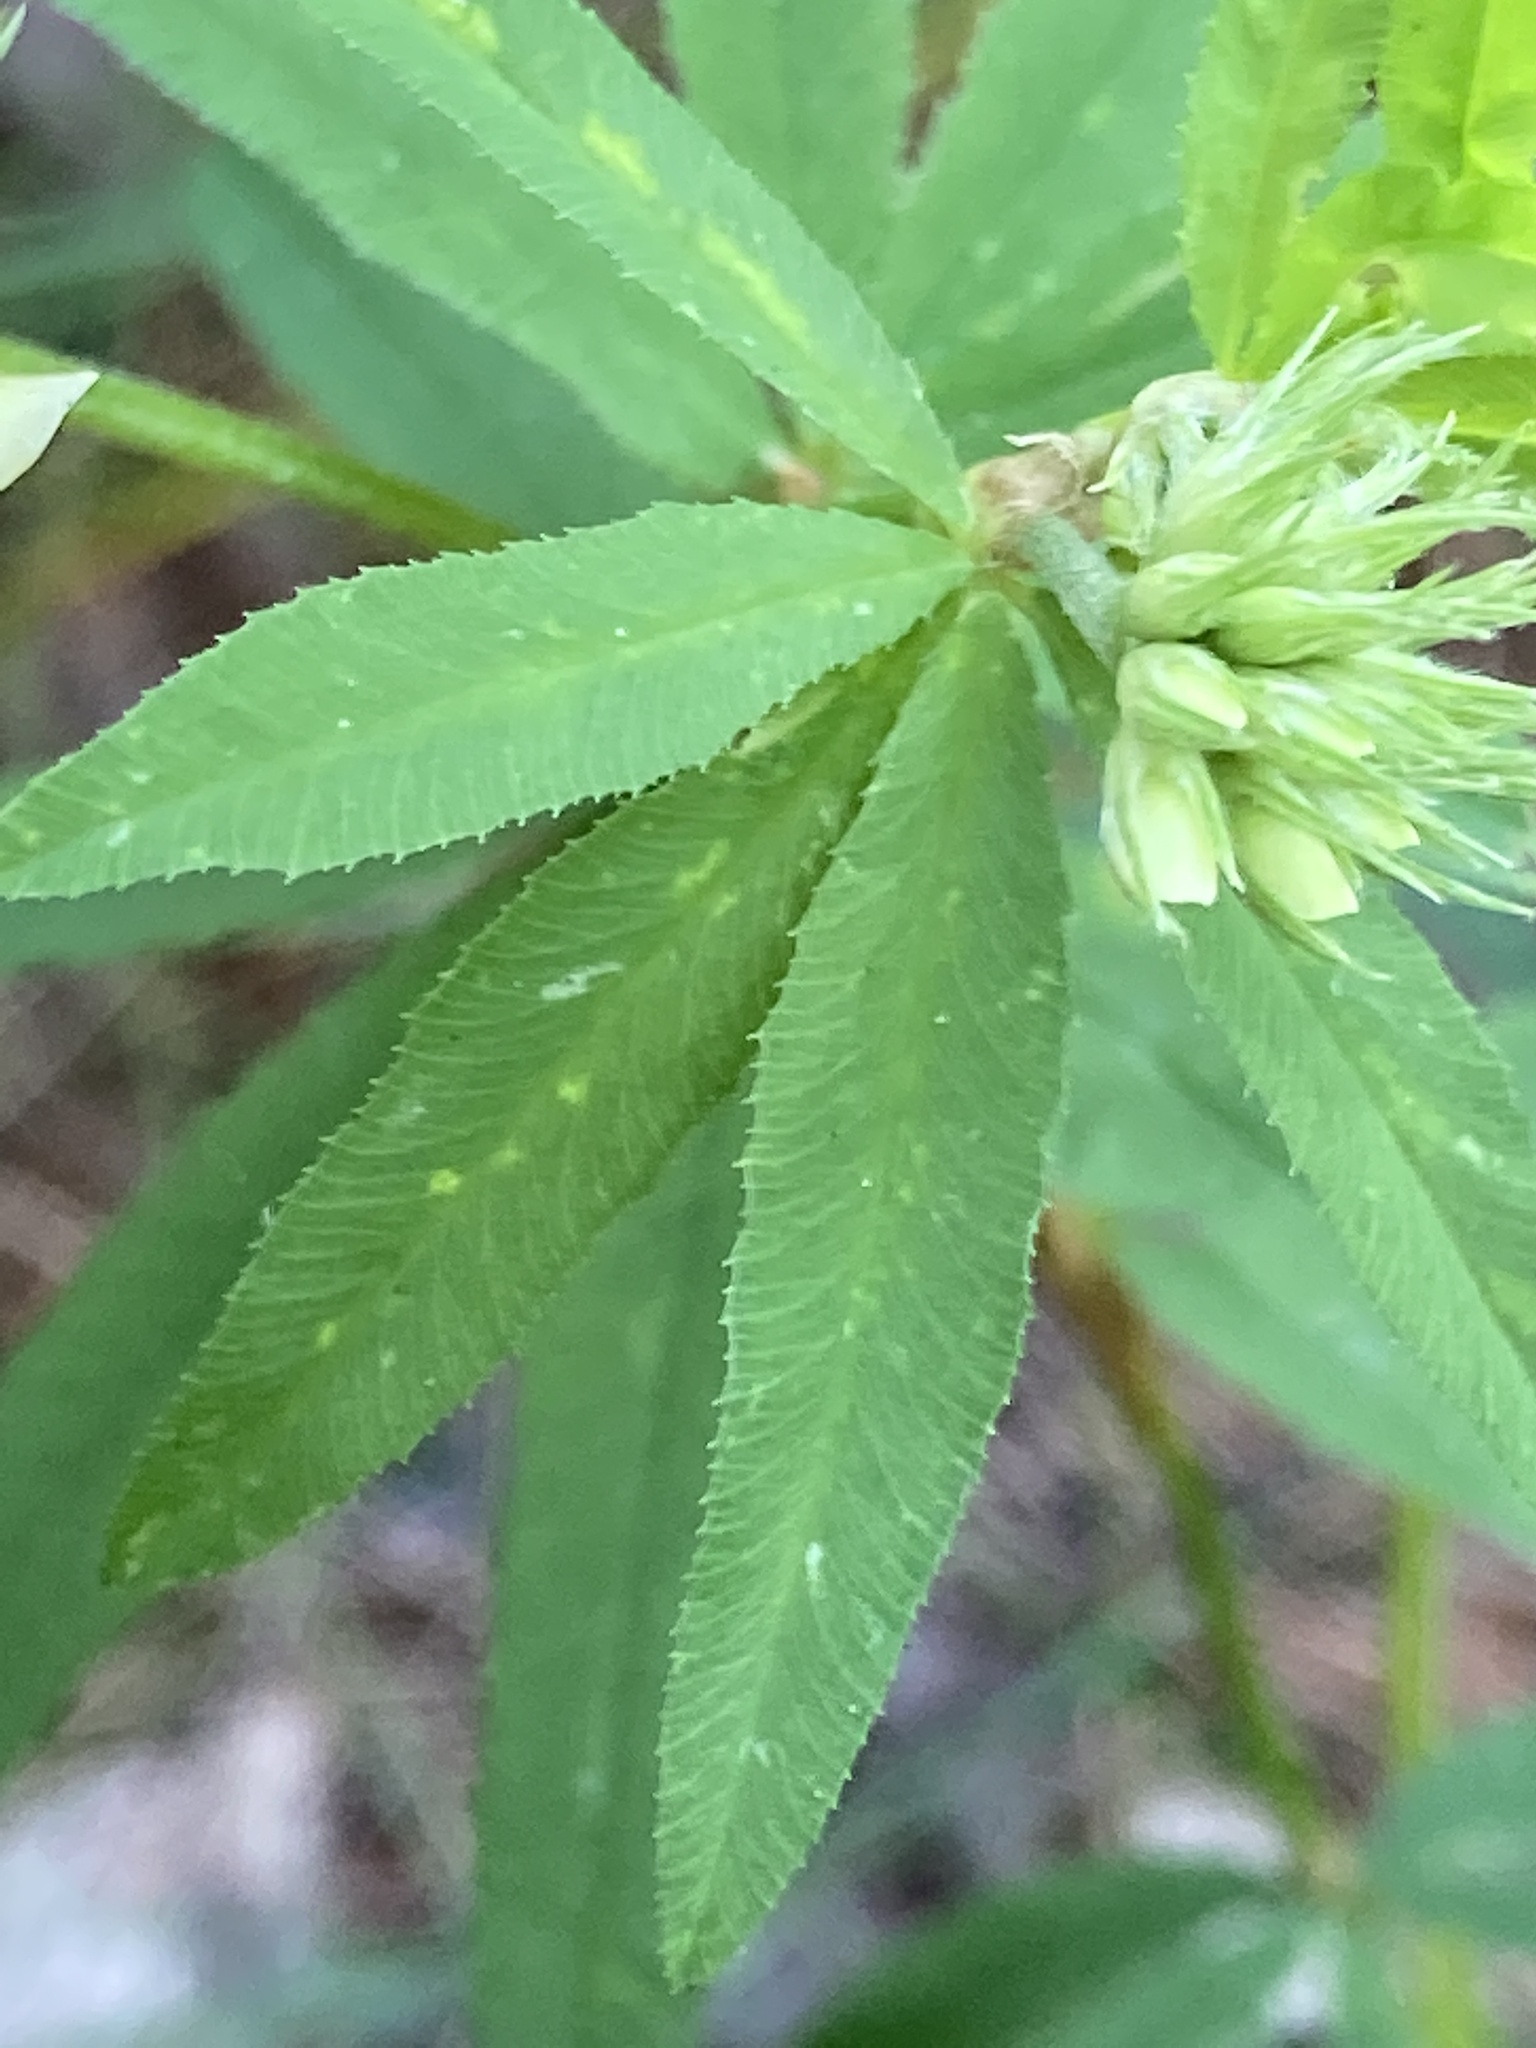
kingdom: Plantae
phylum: Tracheophyta
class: Magnoliopsida
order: Fabales
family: Fabaceae
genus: Trifolium
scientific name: Trifolium lupinaster
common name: Lupine clover
